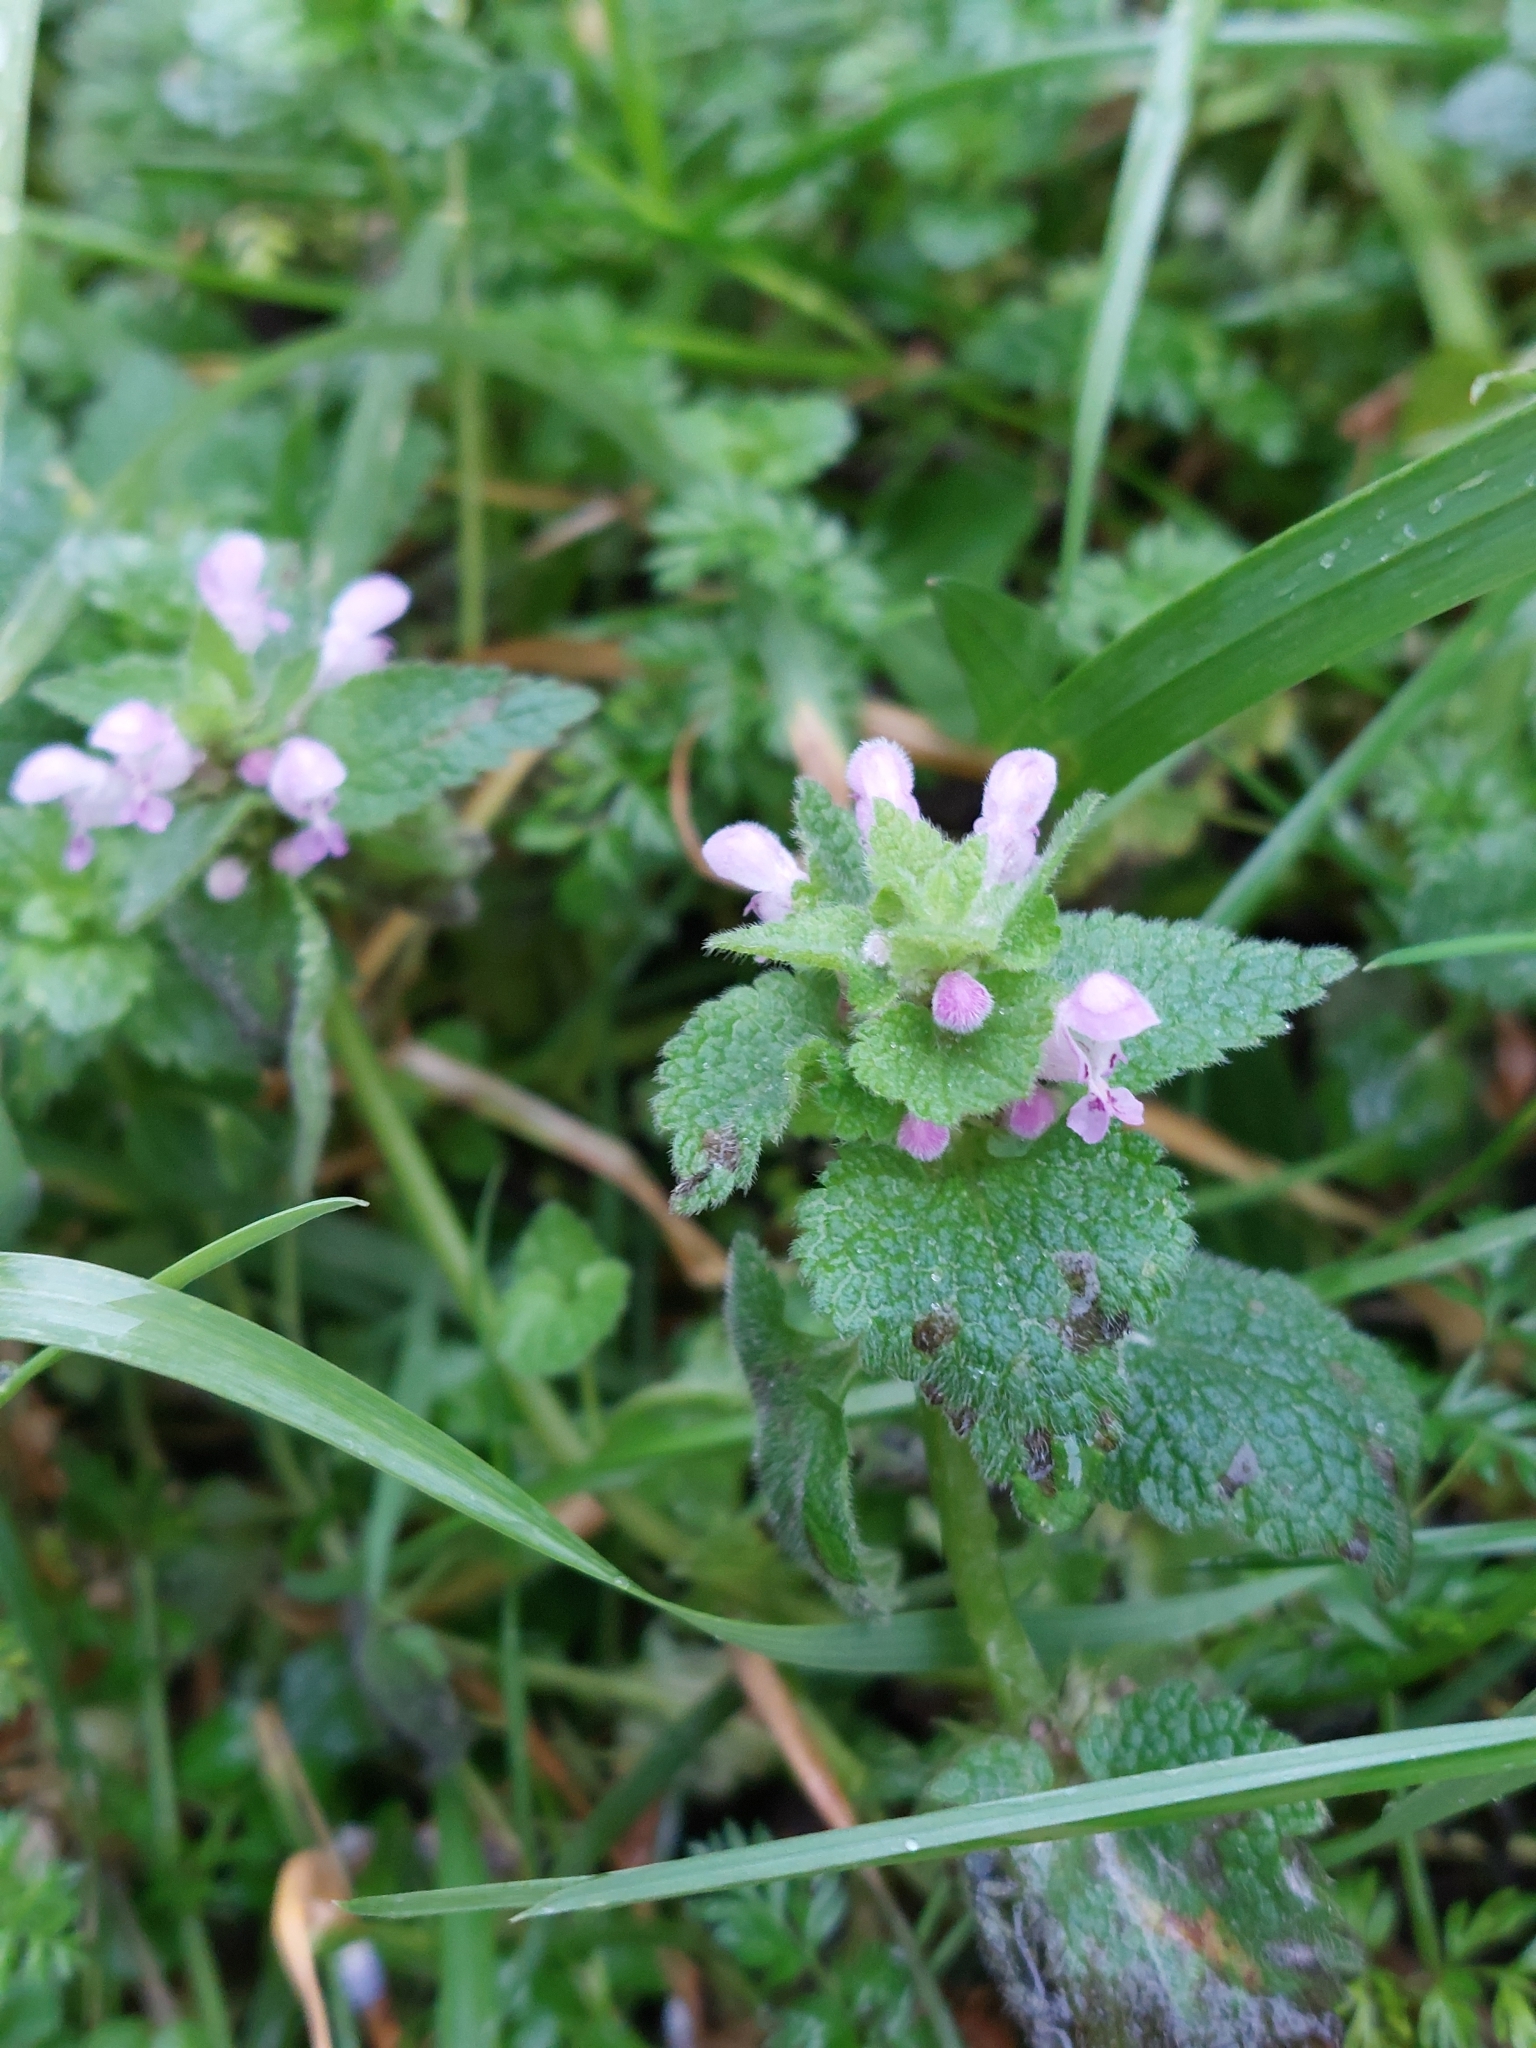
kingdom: Plantae
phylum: Tracheophyta
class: Magnoliopsida
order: Lamiales
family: Lamiaceae
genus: Lamium
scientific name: Lamium purpureum
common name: Red dead-nettle
